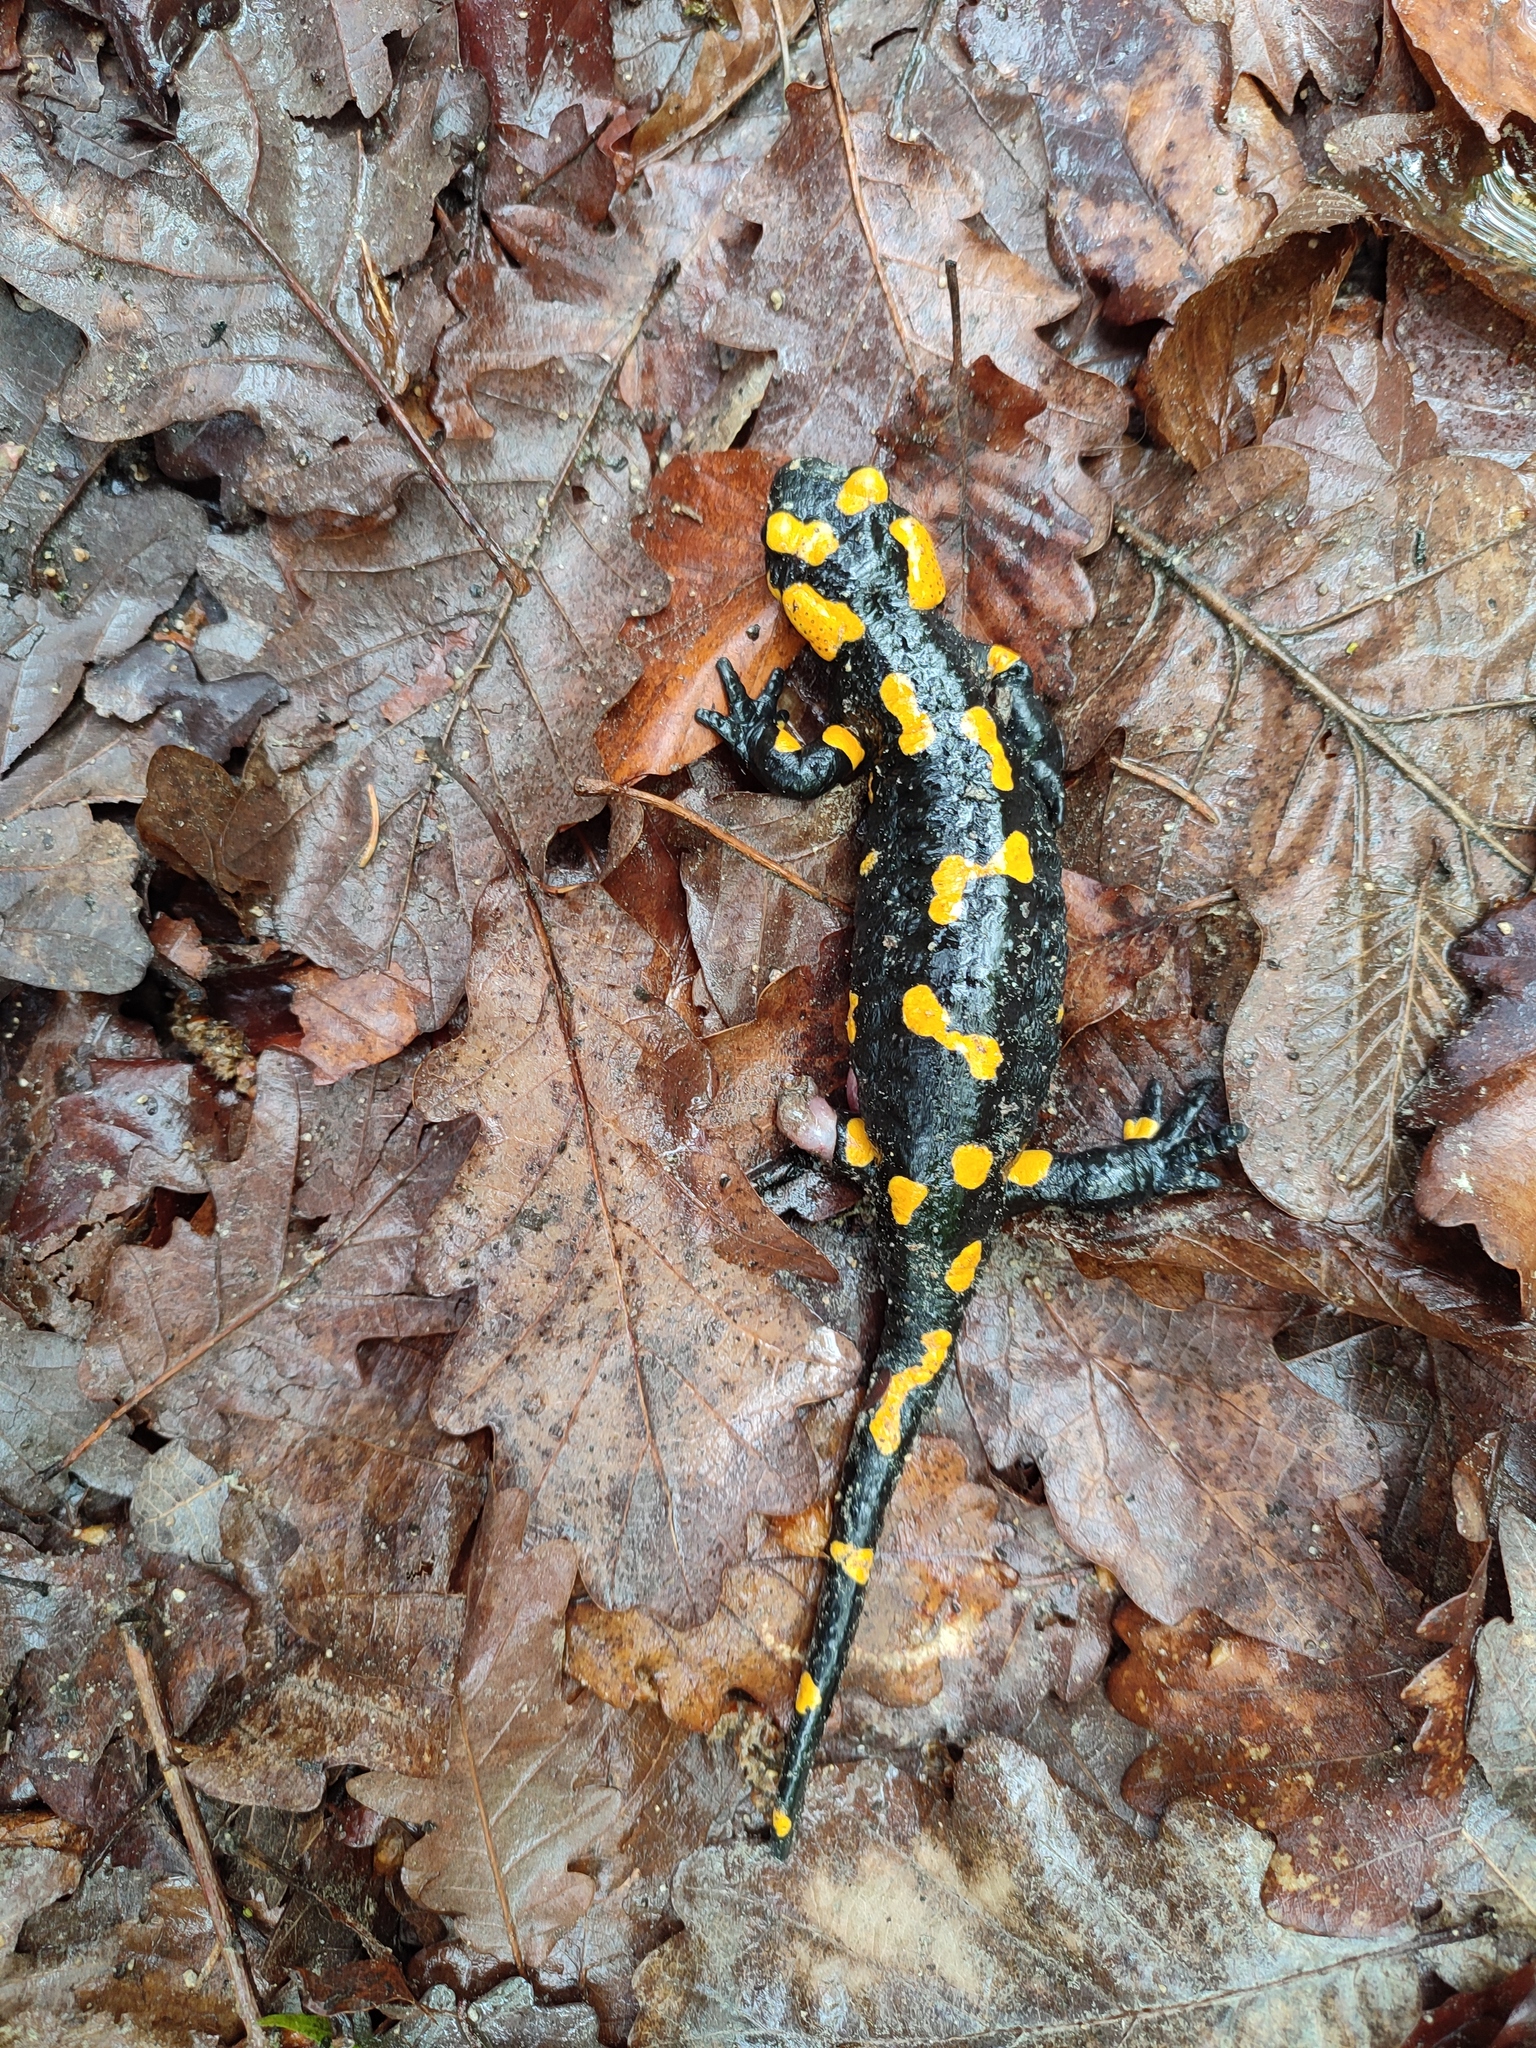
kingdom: Animalia
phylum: Chordata
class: Amphibia
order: Caudata
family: Salamandridae
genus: Salamandra
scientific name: Salamandra salamandra
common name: Fire salamander
